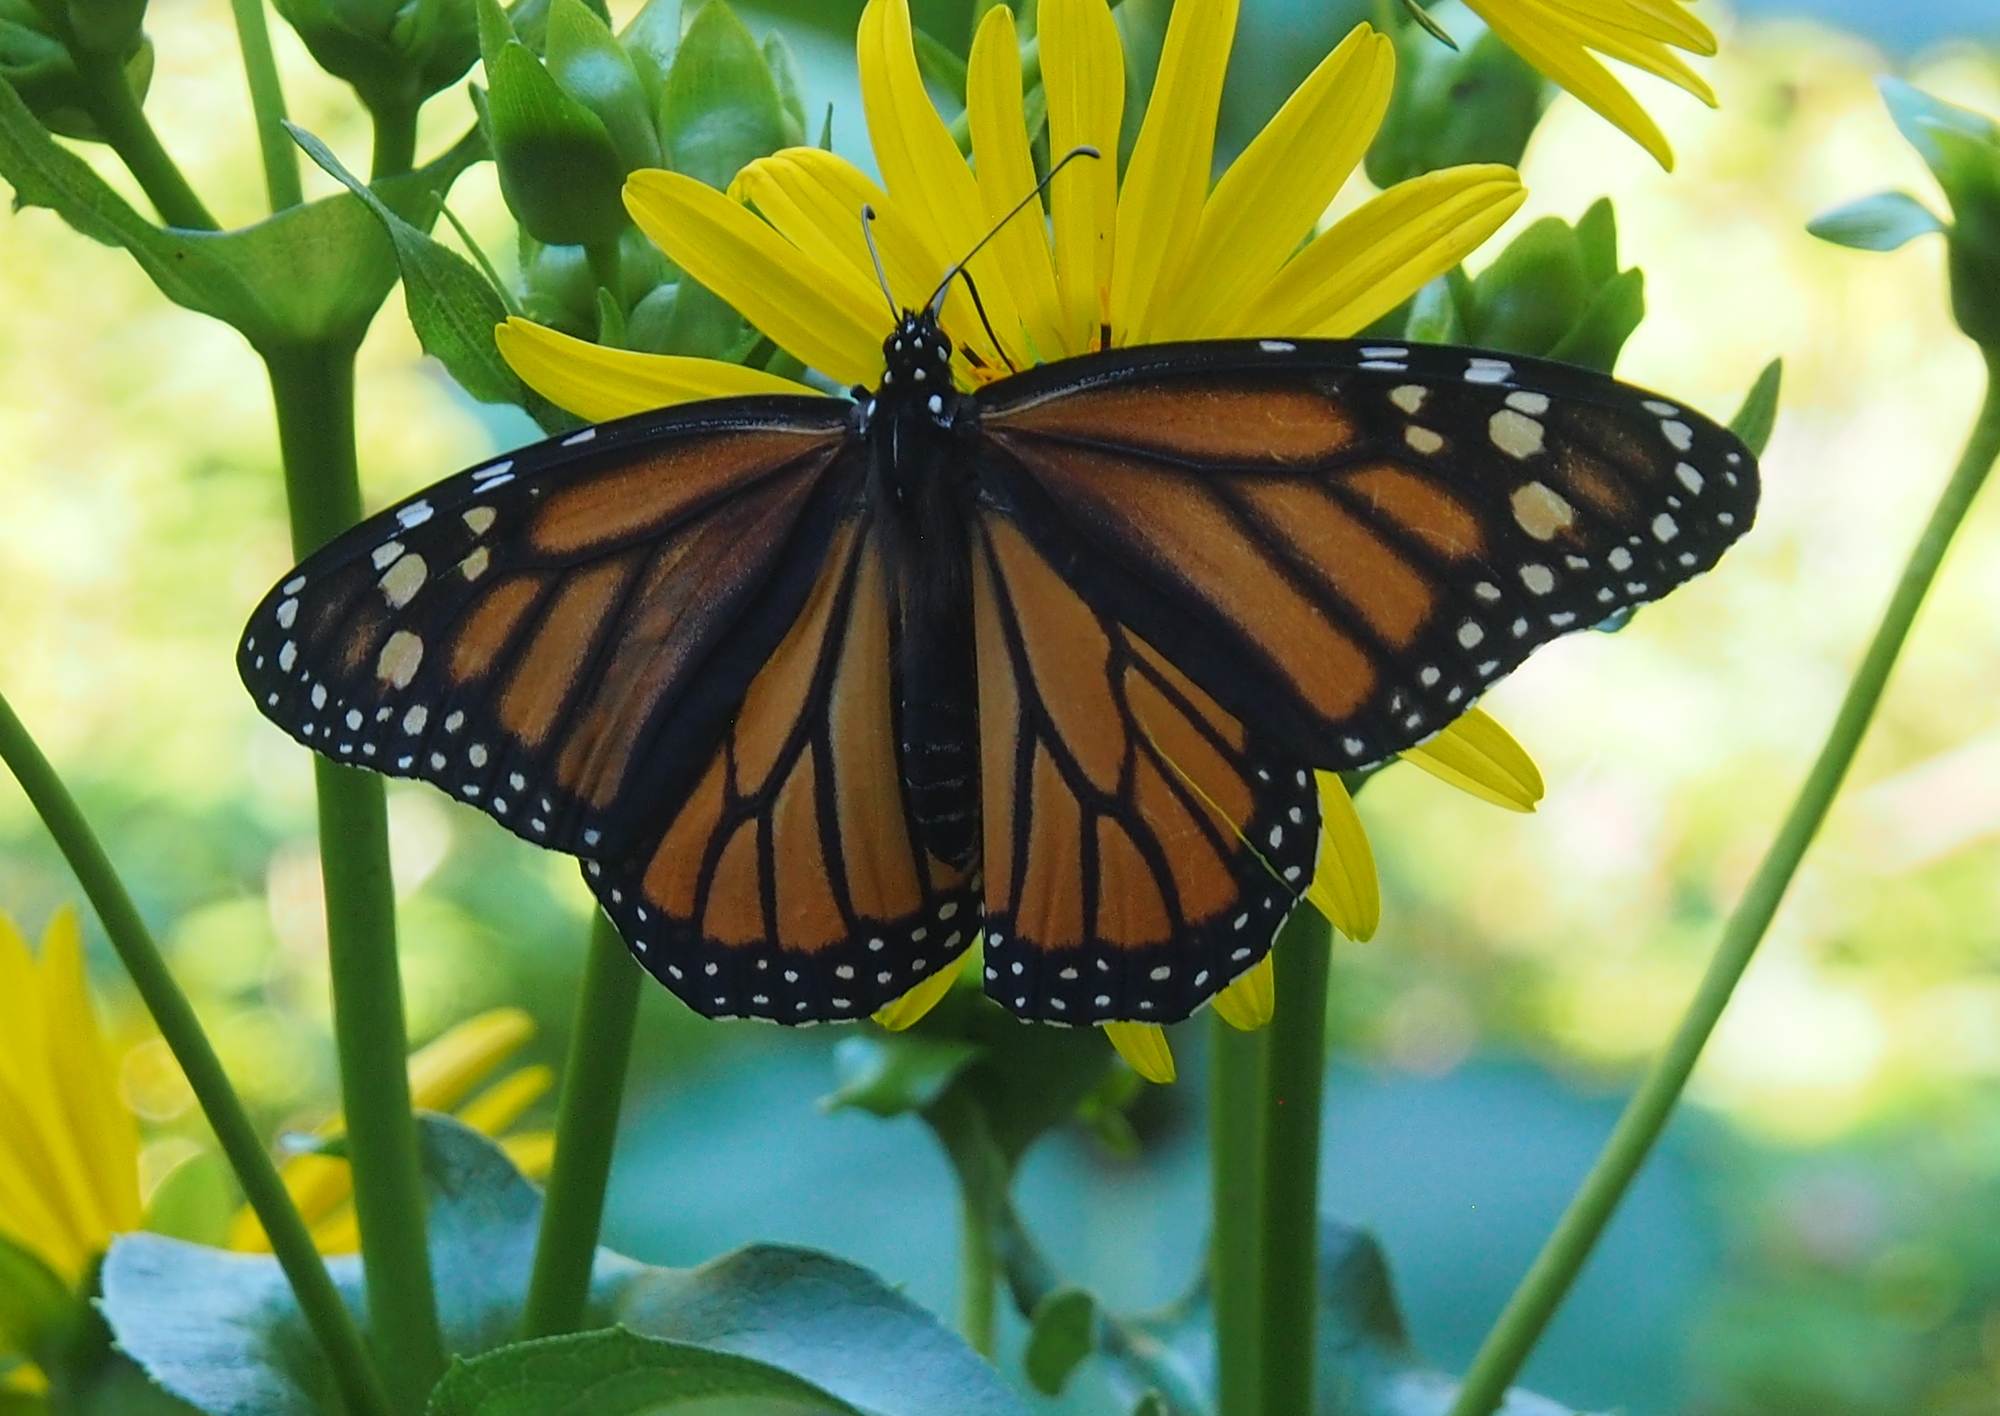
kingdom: Animalia
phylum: Arthropoda
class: Insecta
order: Lepidoptera
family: Nymphalidae
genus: Danaus
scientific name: Danaus plexippus
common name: Monarch
